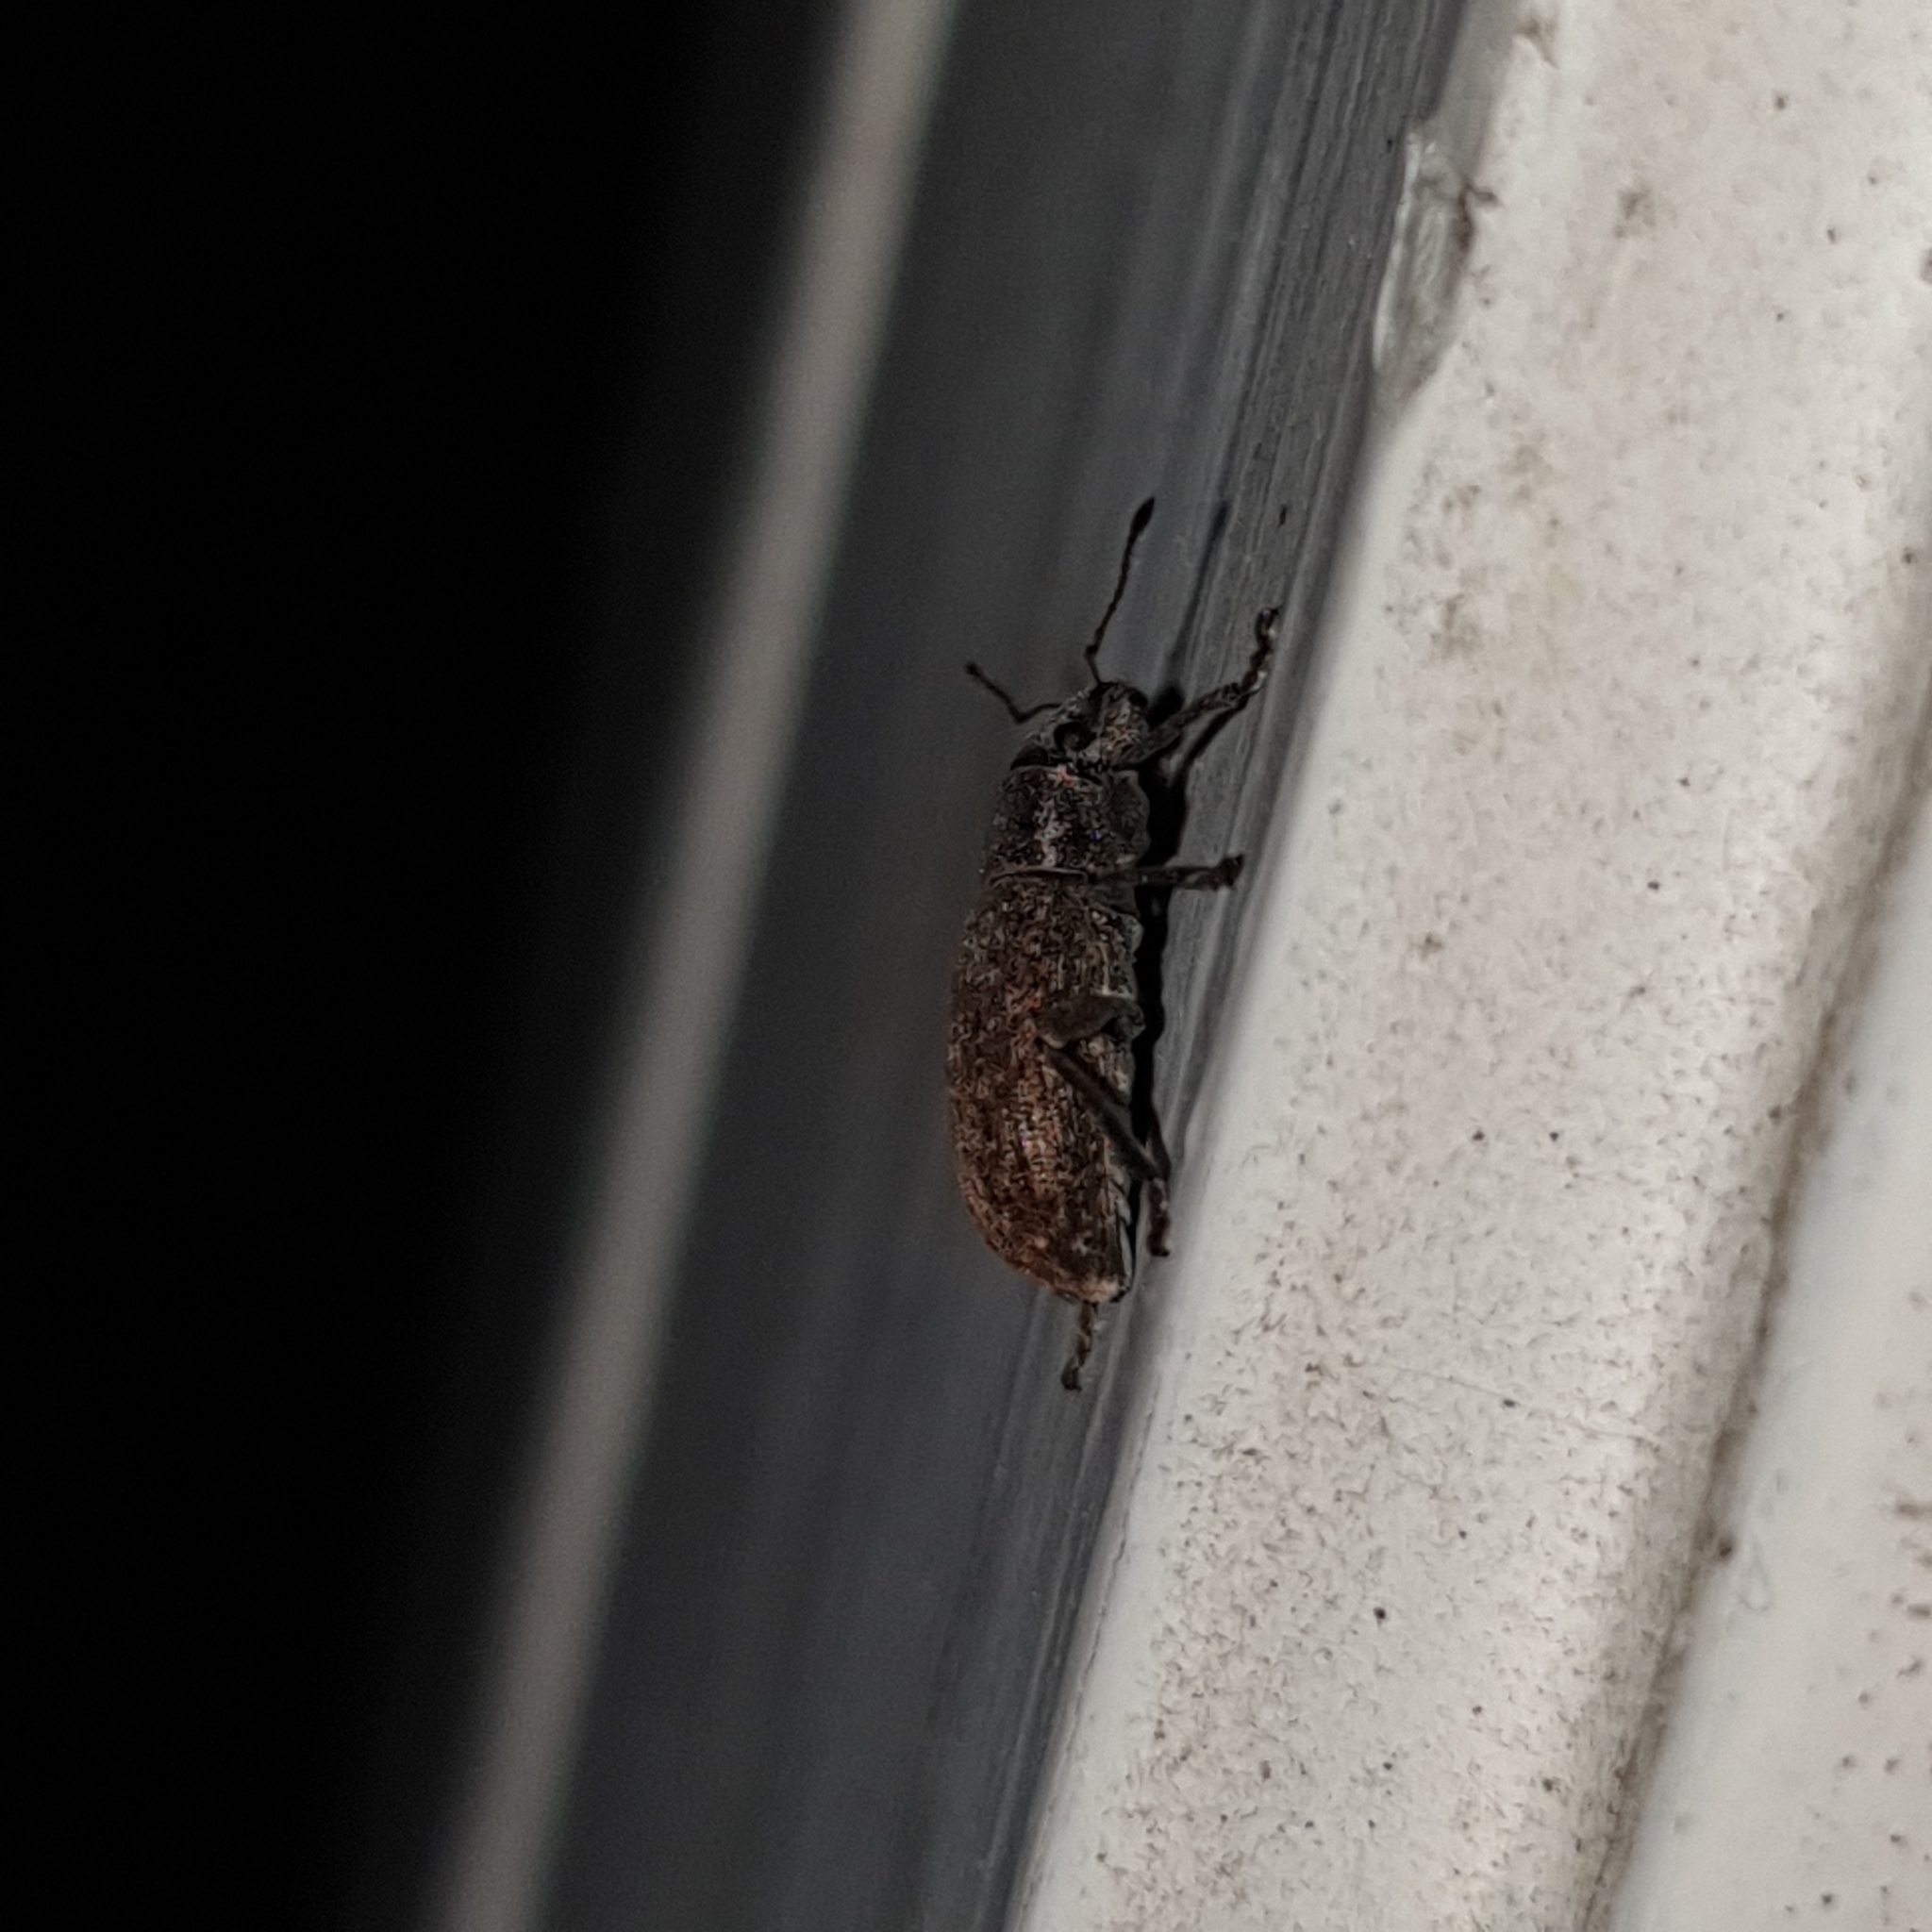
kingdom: Animalia
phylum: Arthropoda
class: Insecta
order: Coleoptera
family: Curculionidae
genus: Brachyderes
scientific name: Brachyderes incanus
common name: Weevil
